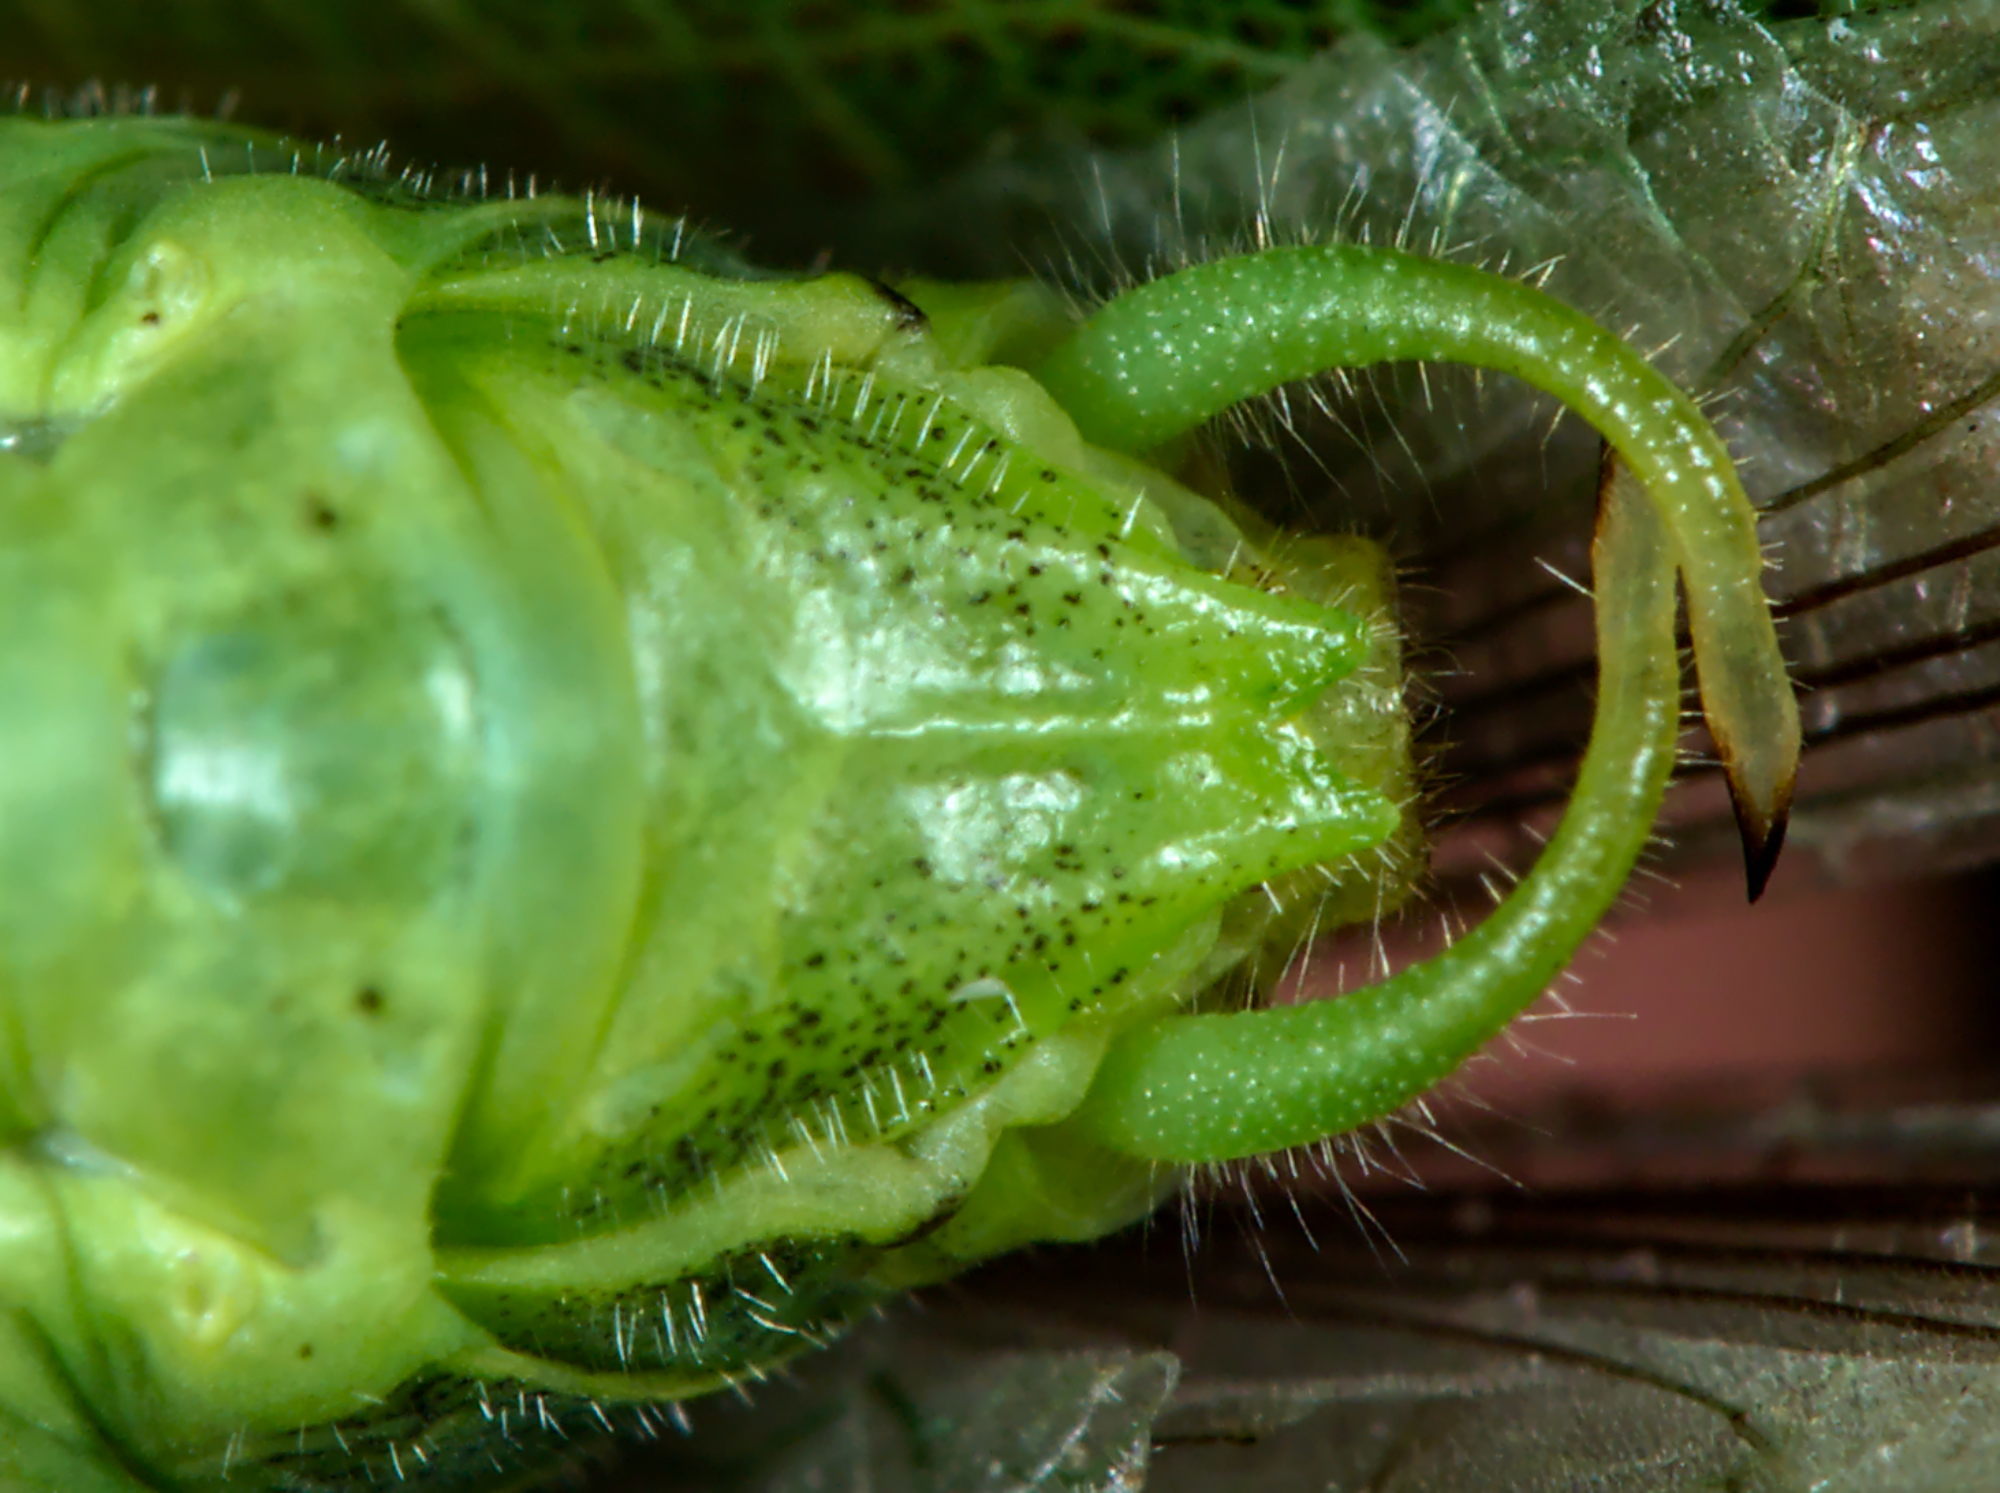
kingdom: Animalia
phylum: Arthropoda
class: Insecta
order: Orthoptera
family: Tettigoniidae
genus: Phaneroptera
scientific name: Phaneroptera nana
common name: Southern sickle bush-cricket
